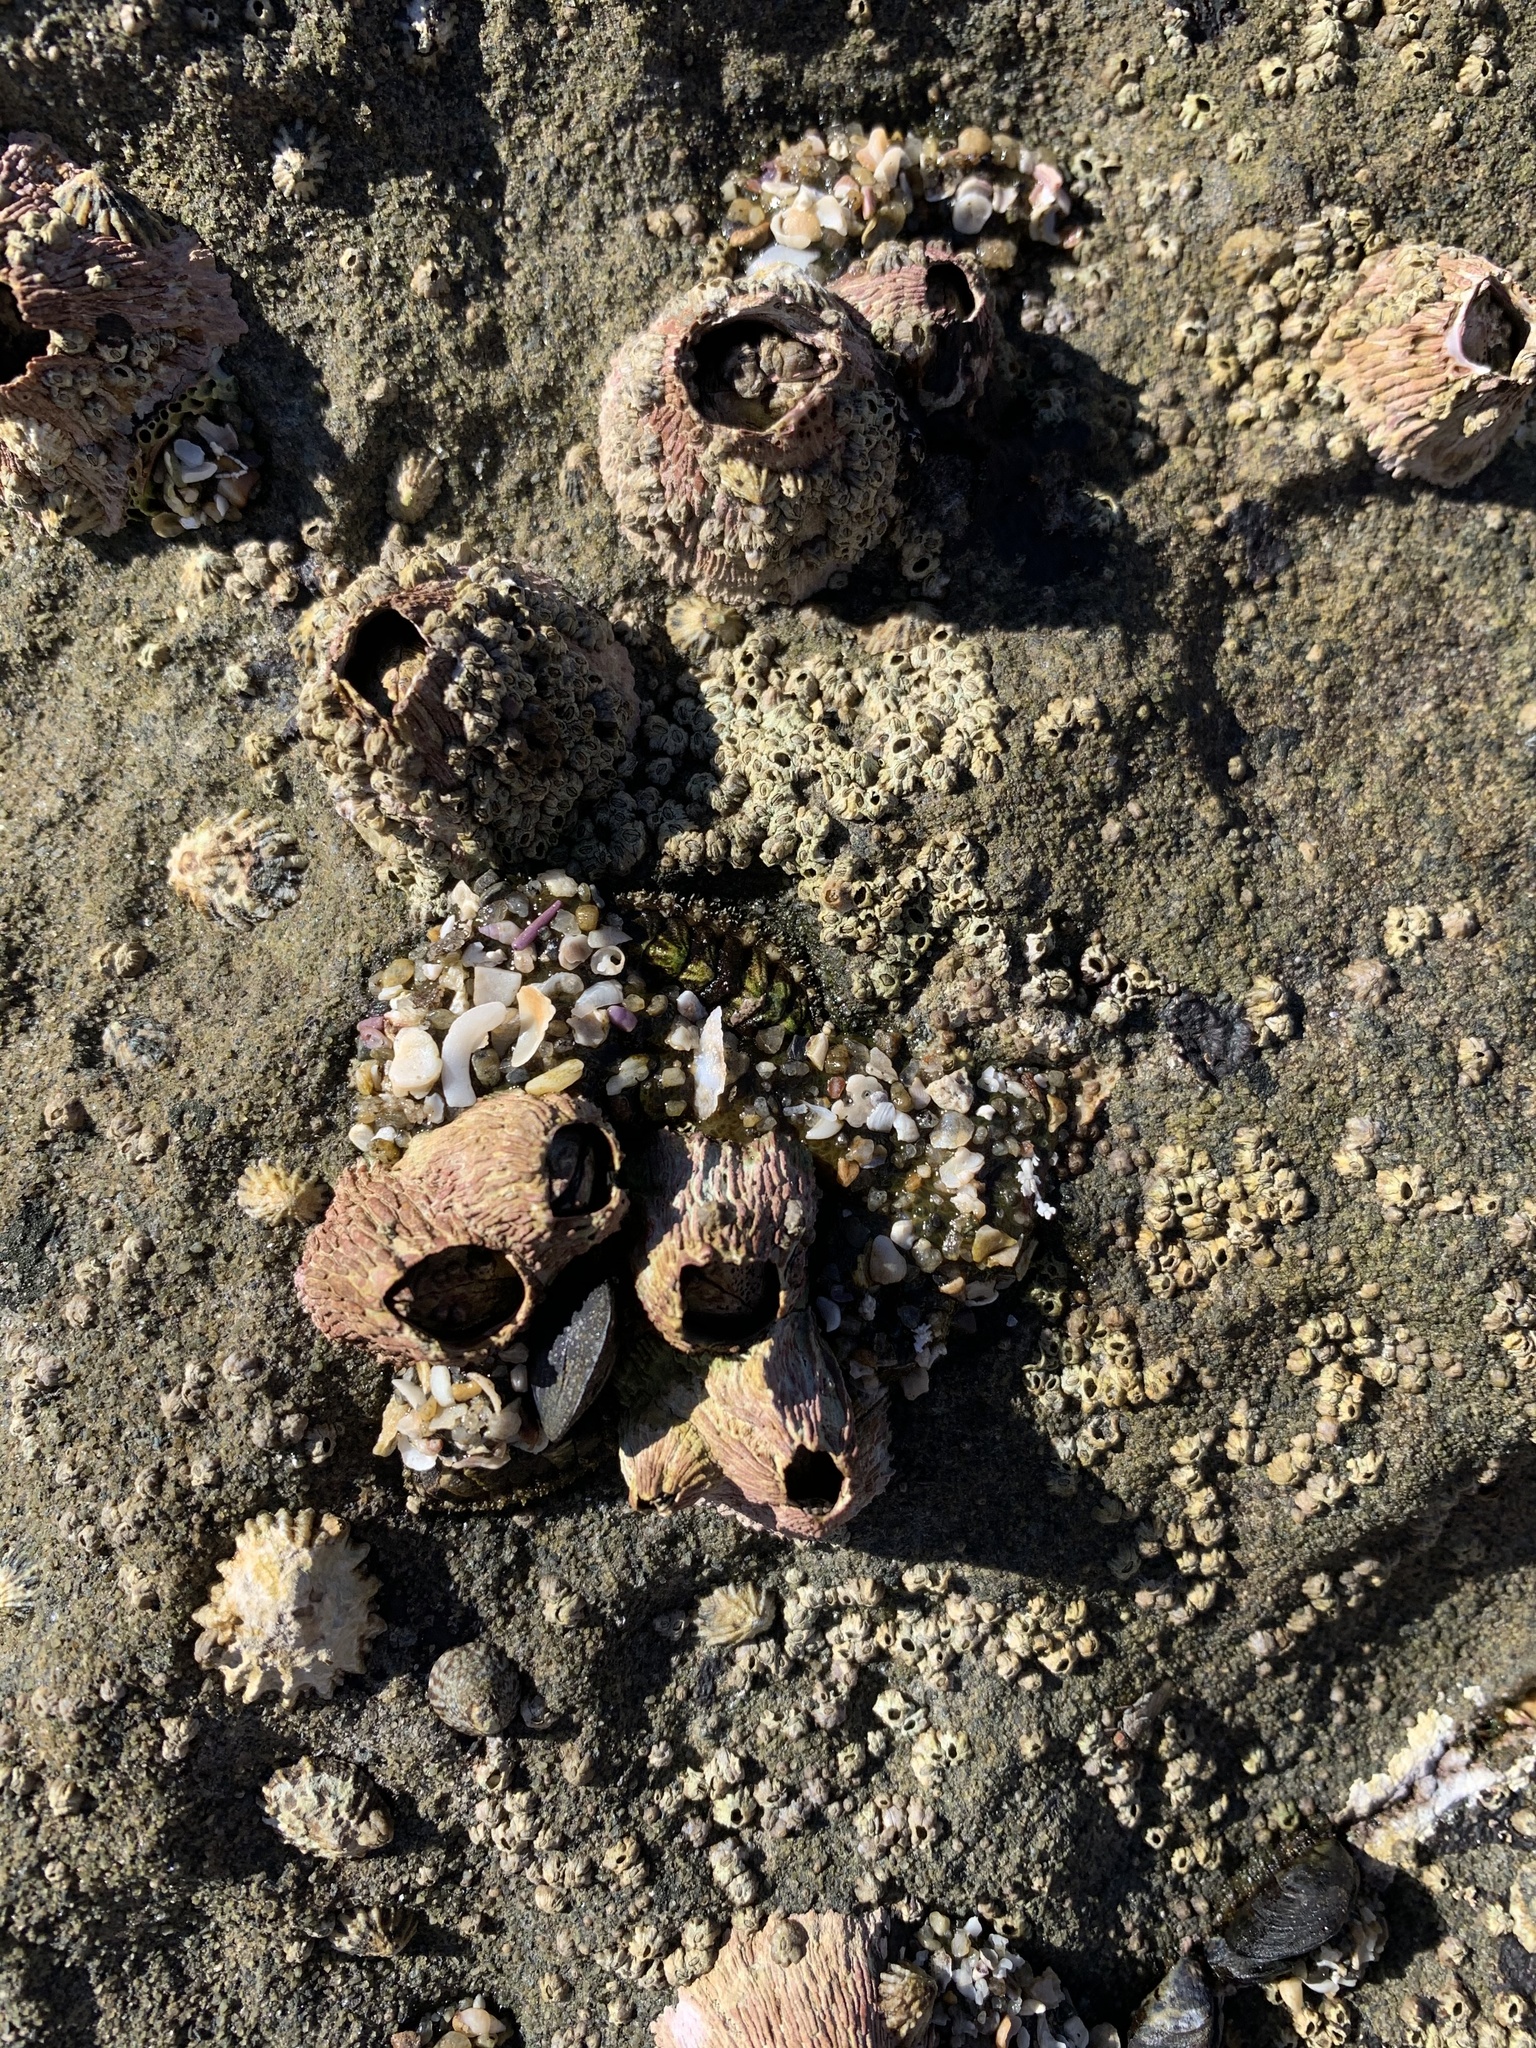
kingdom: Animalia
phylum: Arthropoda
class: Maxillopoda
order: Sessilia
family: Tetraclitidae
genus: Tetraclita
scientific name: Tetraclita rubescens
